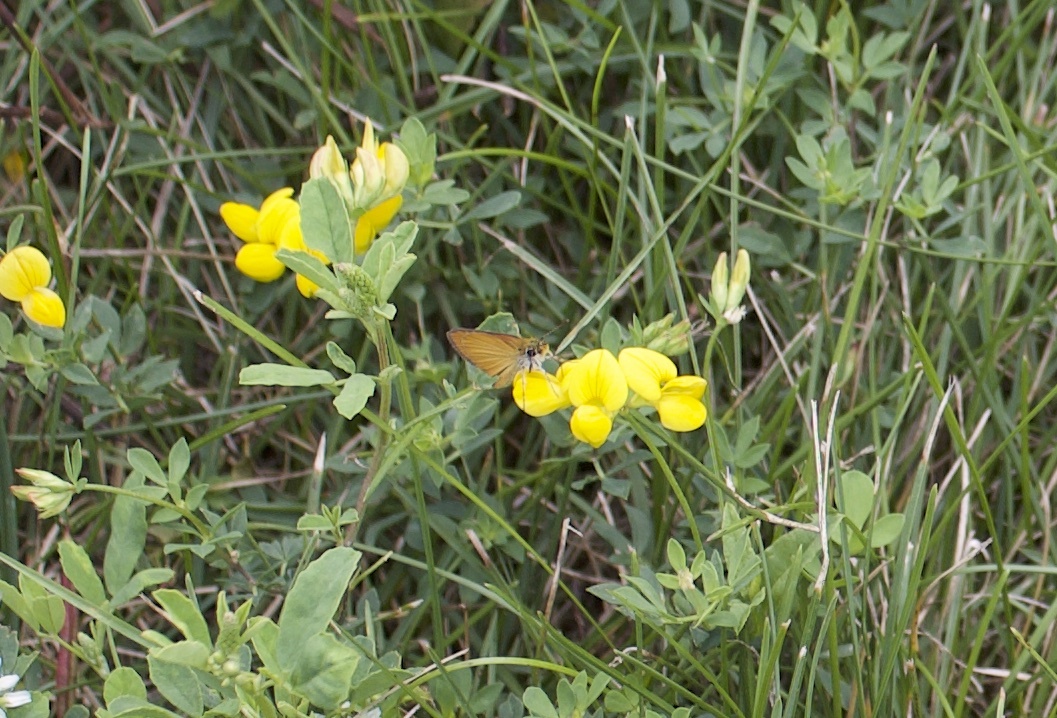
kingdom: Animalia
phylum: Arthropoda
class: Insecta
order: Lepidoptera
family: Hesperiidae
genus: Ancyloxypha
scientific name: Ancyloxypha numitor
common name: Least skipper
